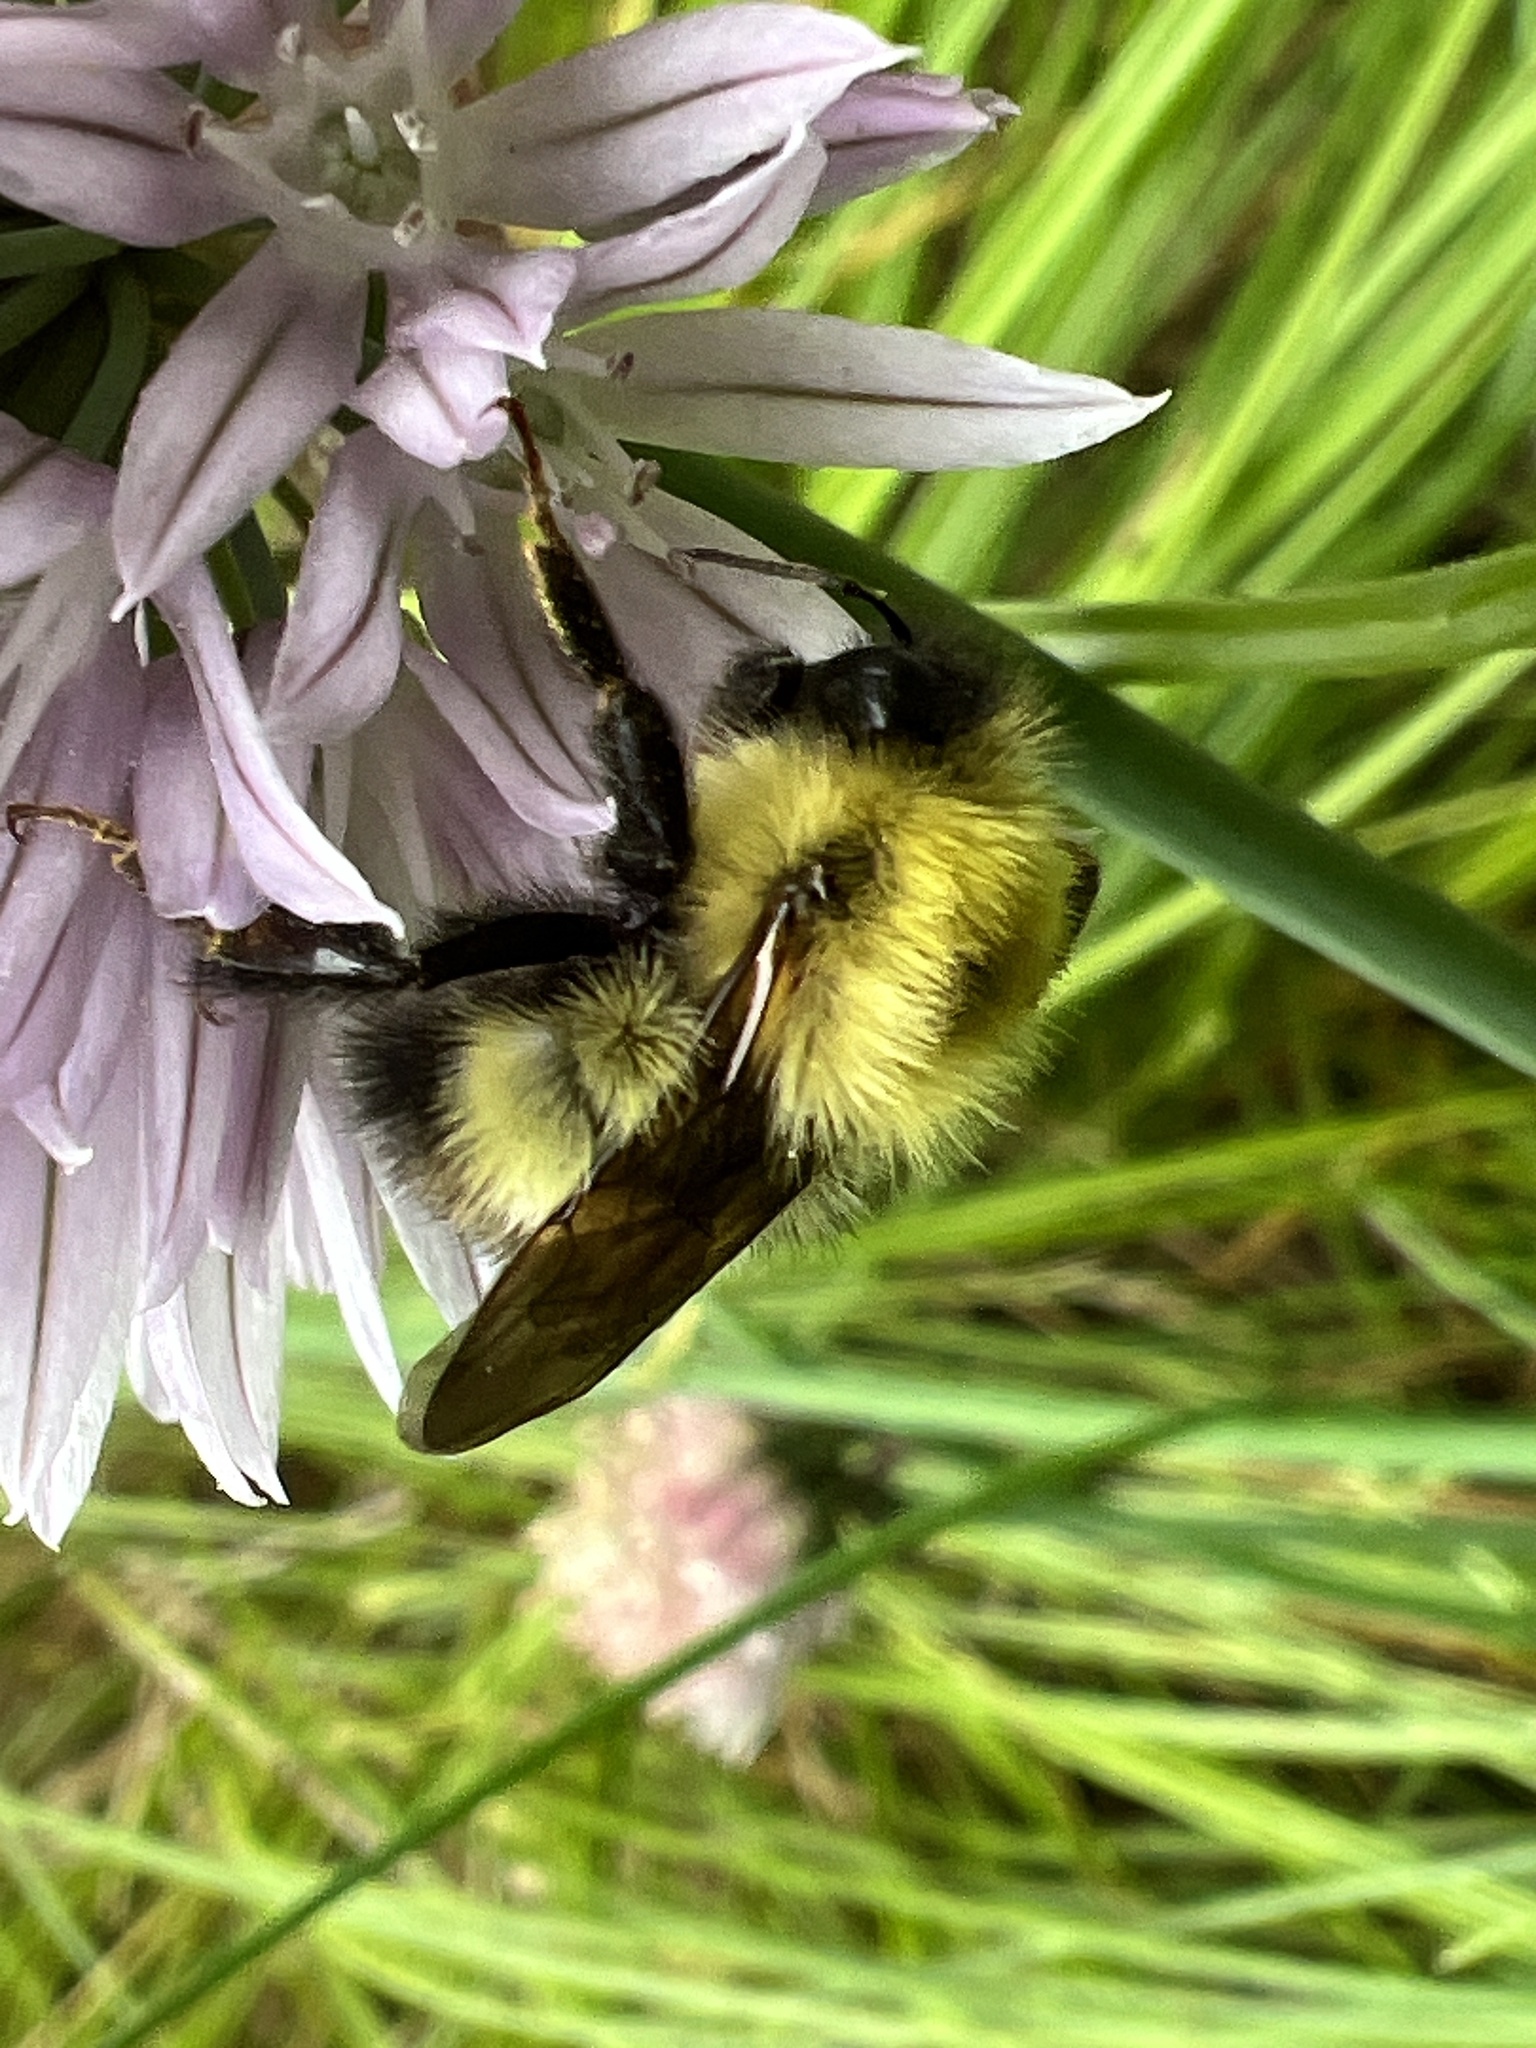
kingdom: Animalia
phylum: Arthropoda
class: Insecta
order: Hymenoptera
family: Apidae
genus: Bombus
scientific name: Bombus perplexus
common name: Confusing bumble bee
